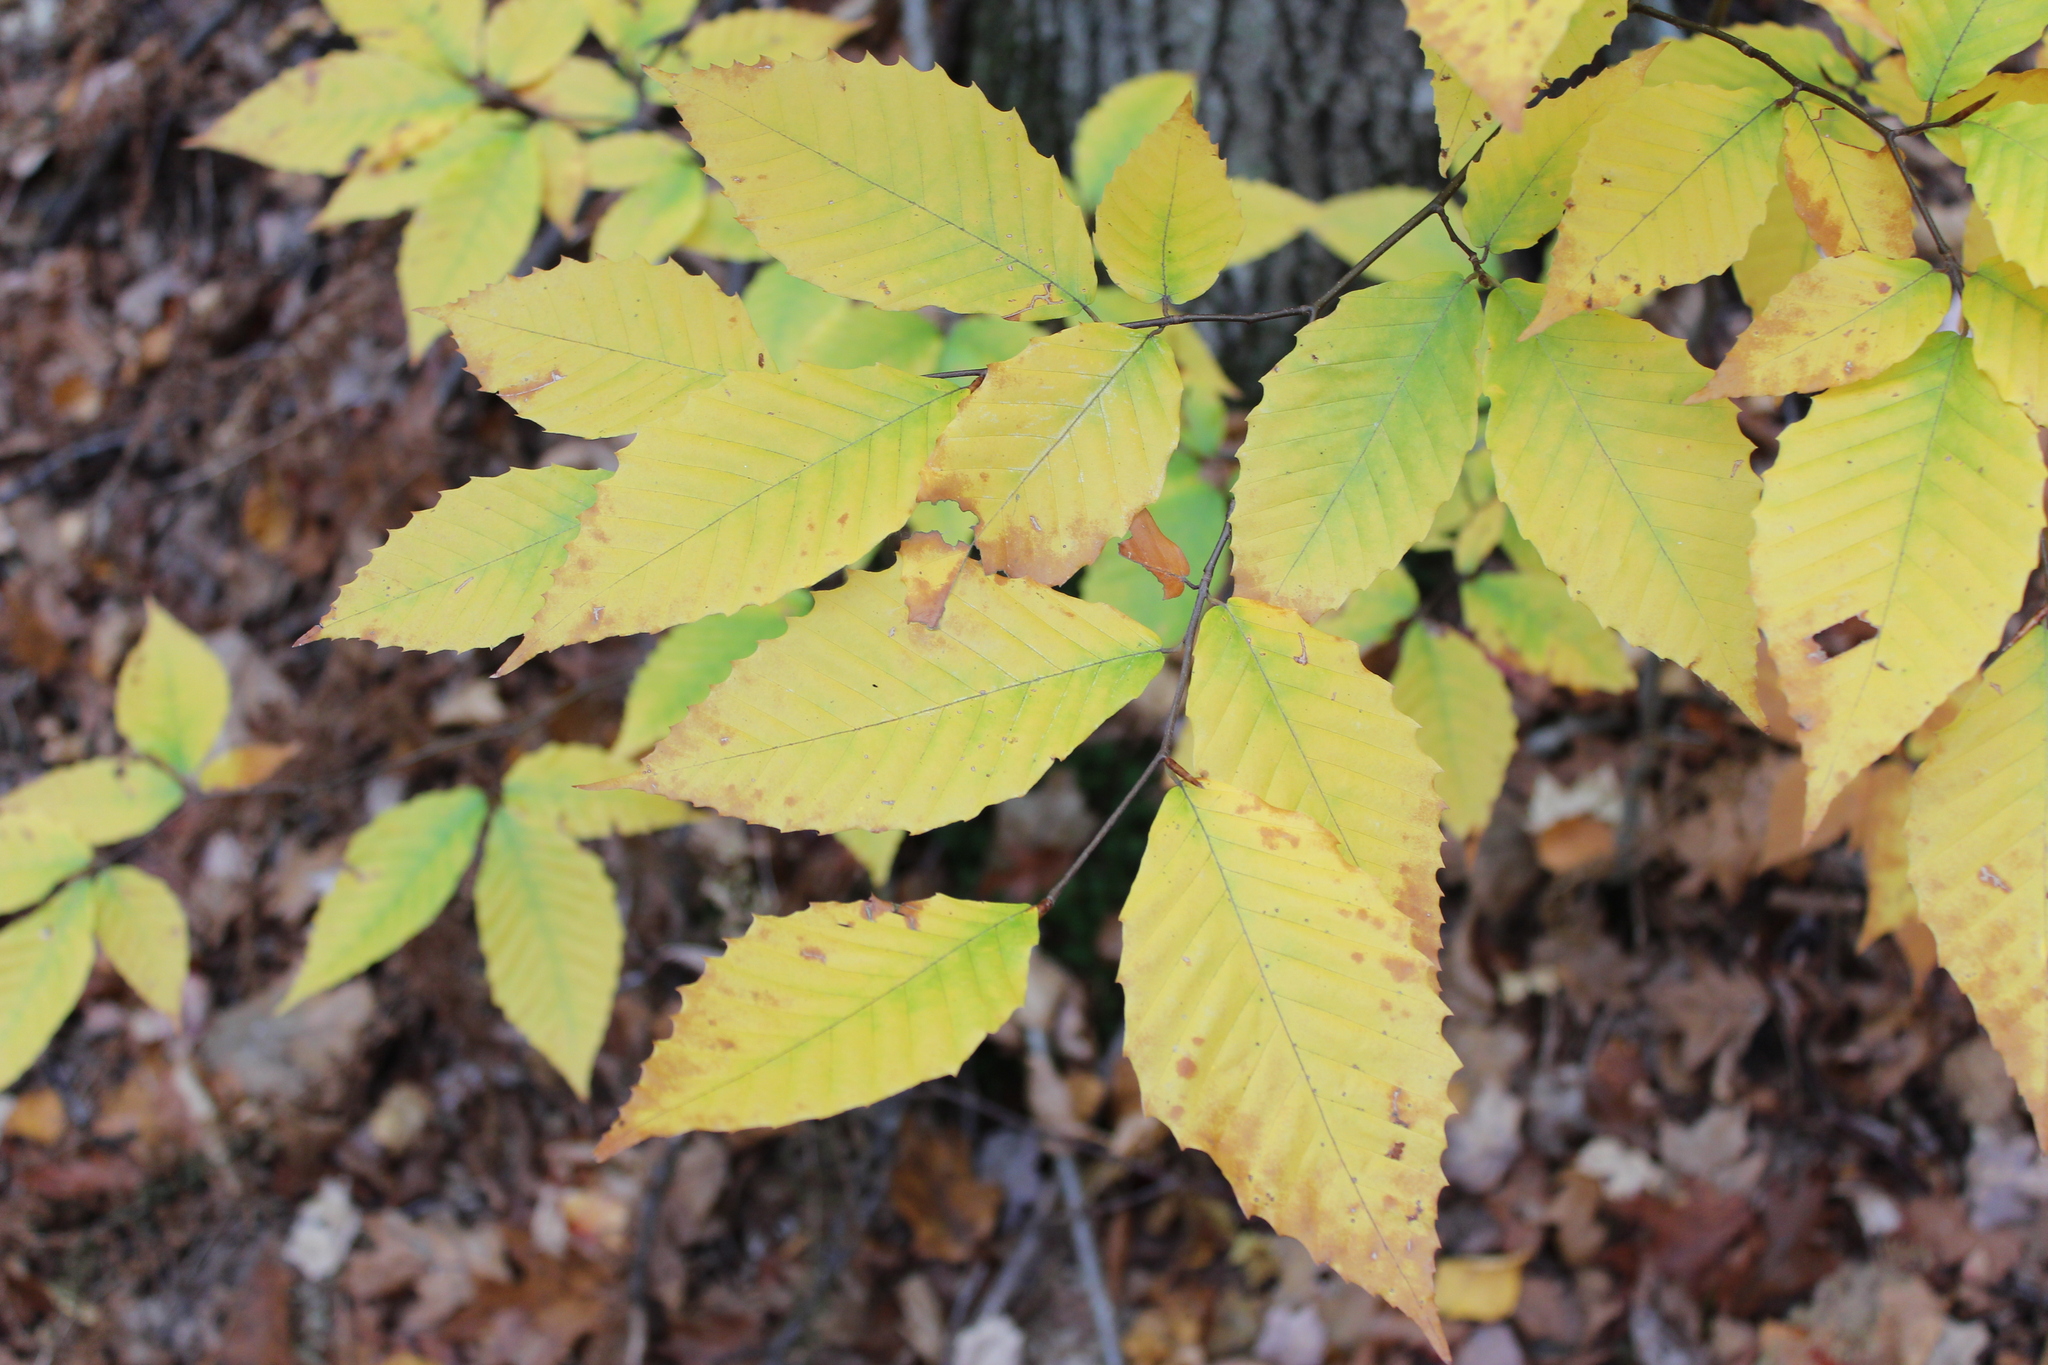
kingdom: Plantae
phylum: Tracheophyta
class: Magnoliopsida
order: Fagales
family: Fagaceae
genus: Fagus
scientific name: Fagus grandifolia
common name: American beech
